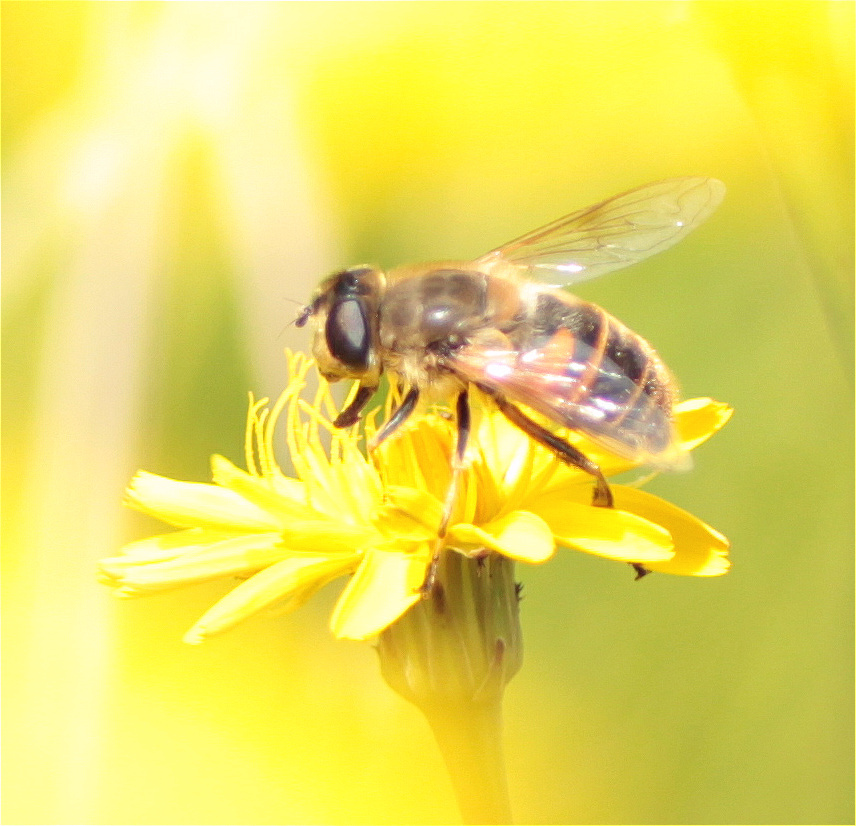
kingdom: Animalia
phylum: Arthropoda
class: Insecta
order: Diptera
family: Syrphidae
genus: Eristalis
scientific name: Eristalis tenax
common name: Drone fly
